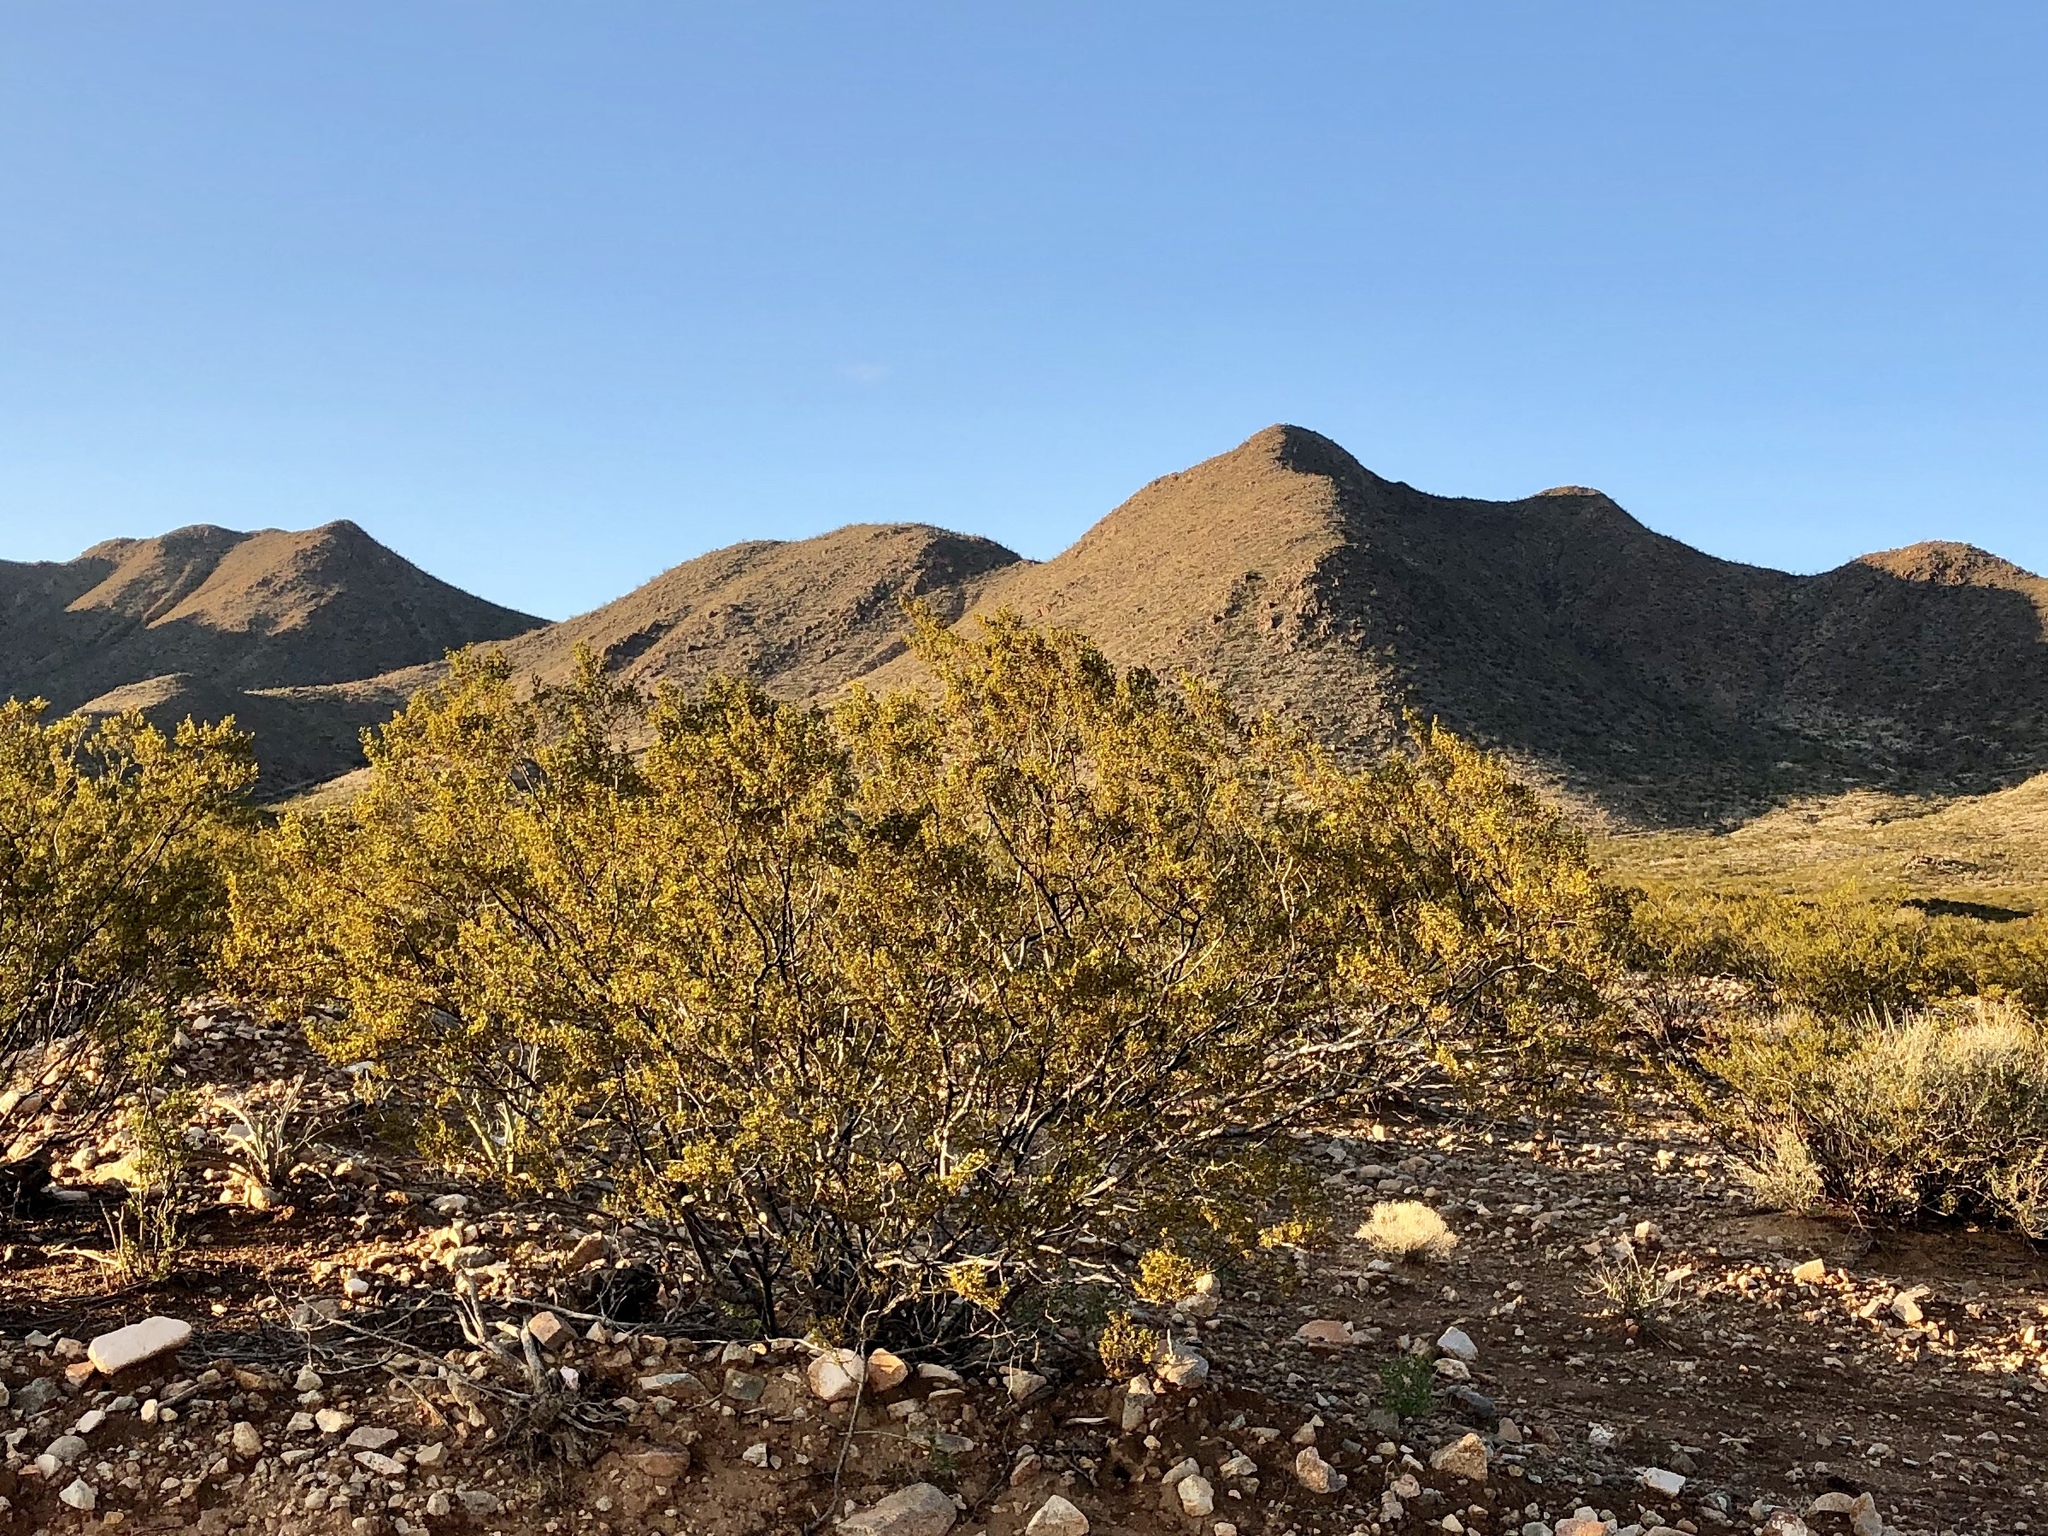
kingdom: Plantae
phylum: Tracheophyta
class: Magnoliopsida
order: Zygophyllales
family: Zygophyllaceae
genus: Larrea
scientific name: Larrea tridentata
